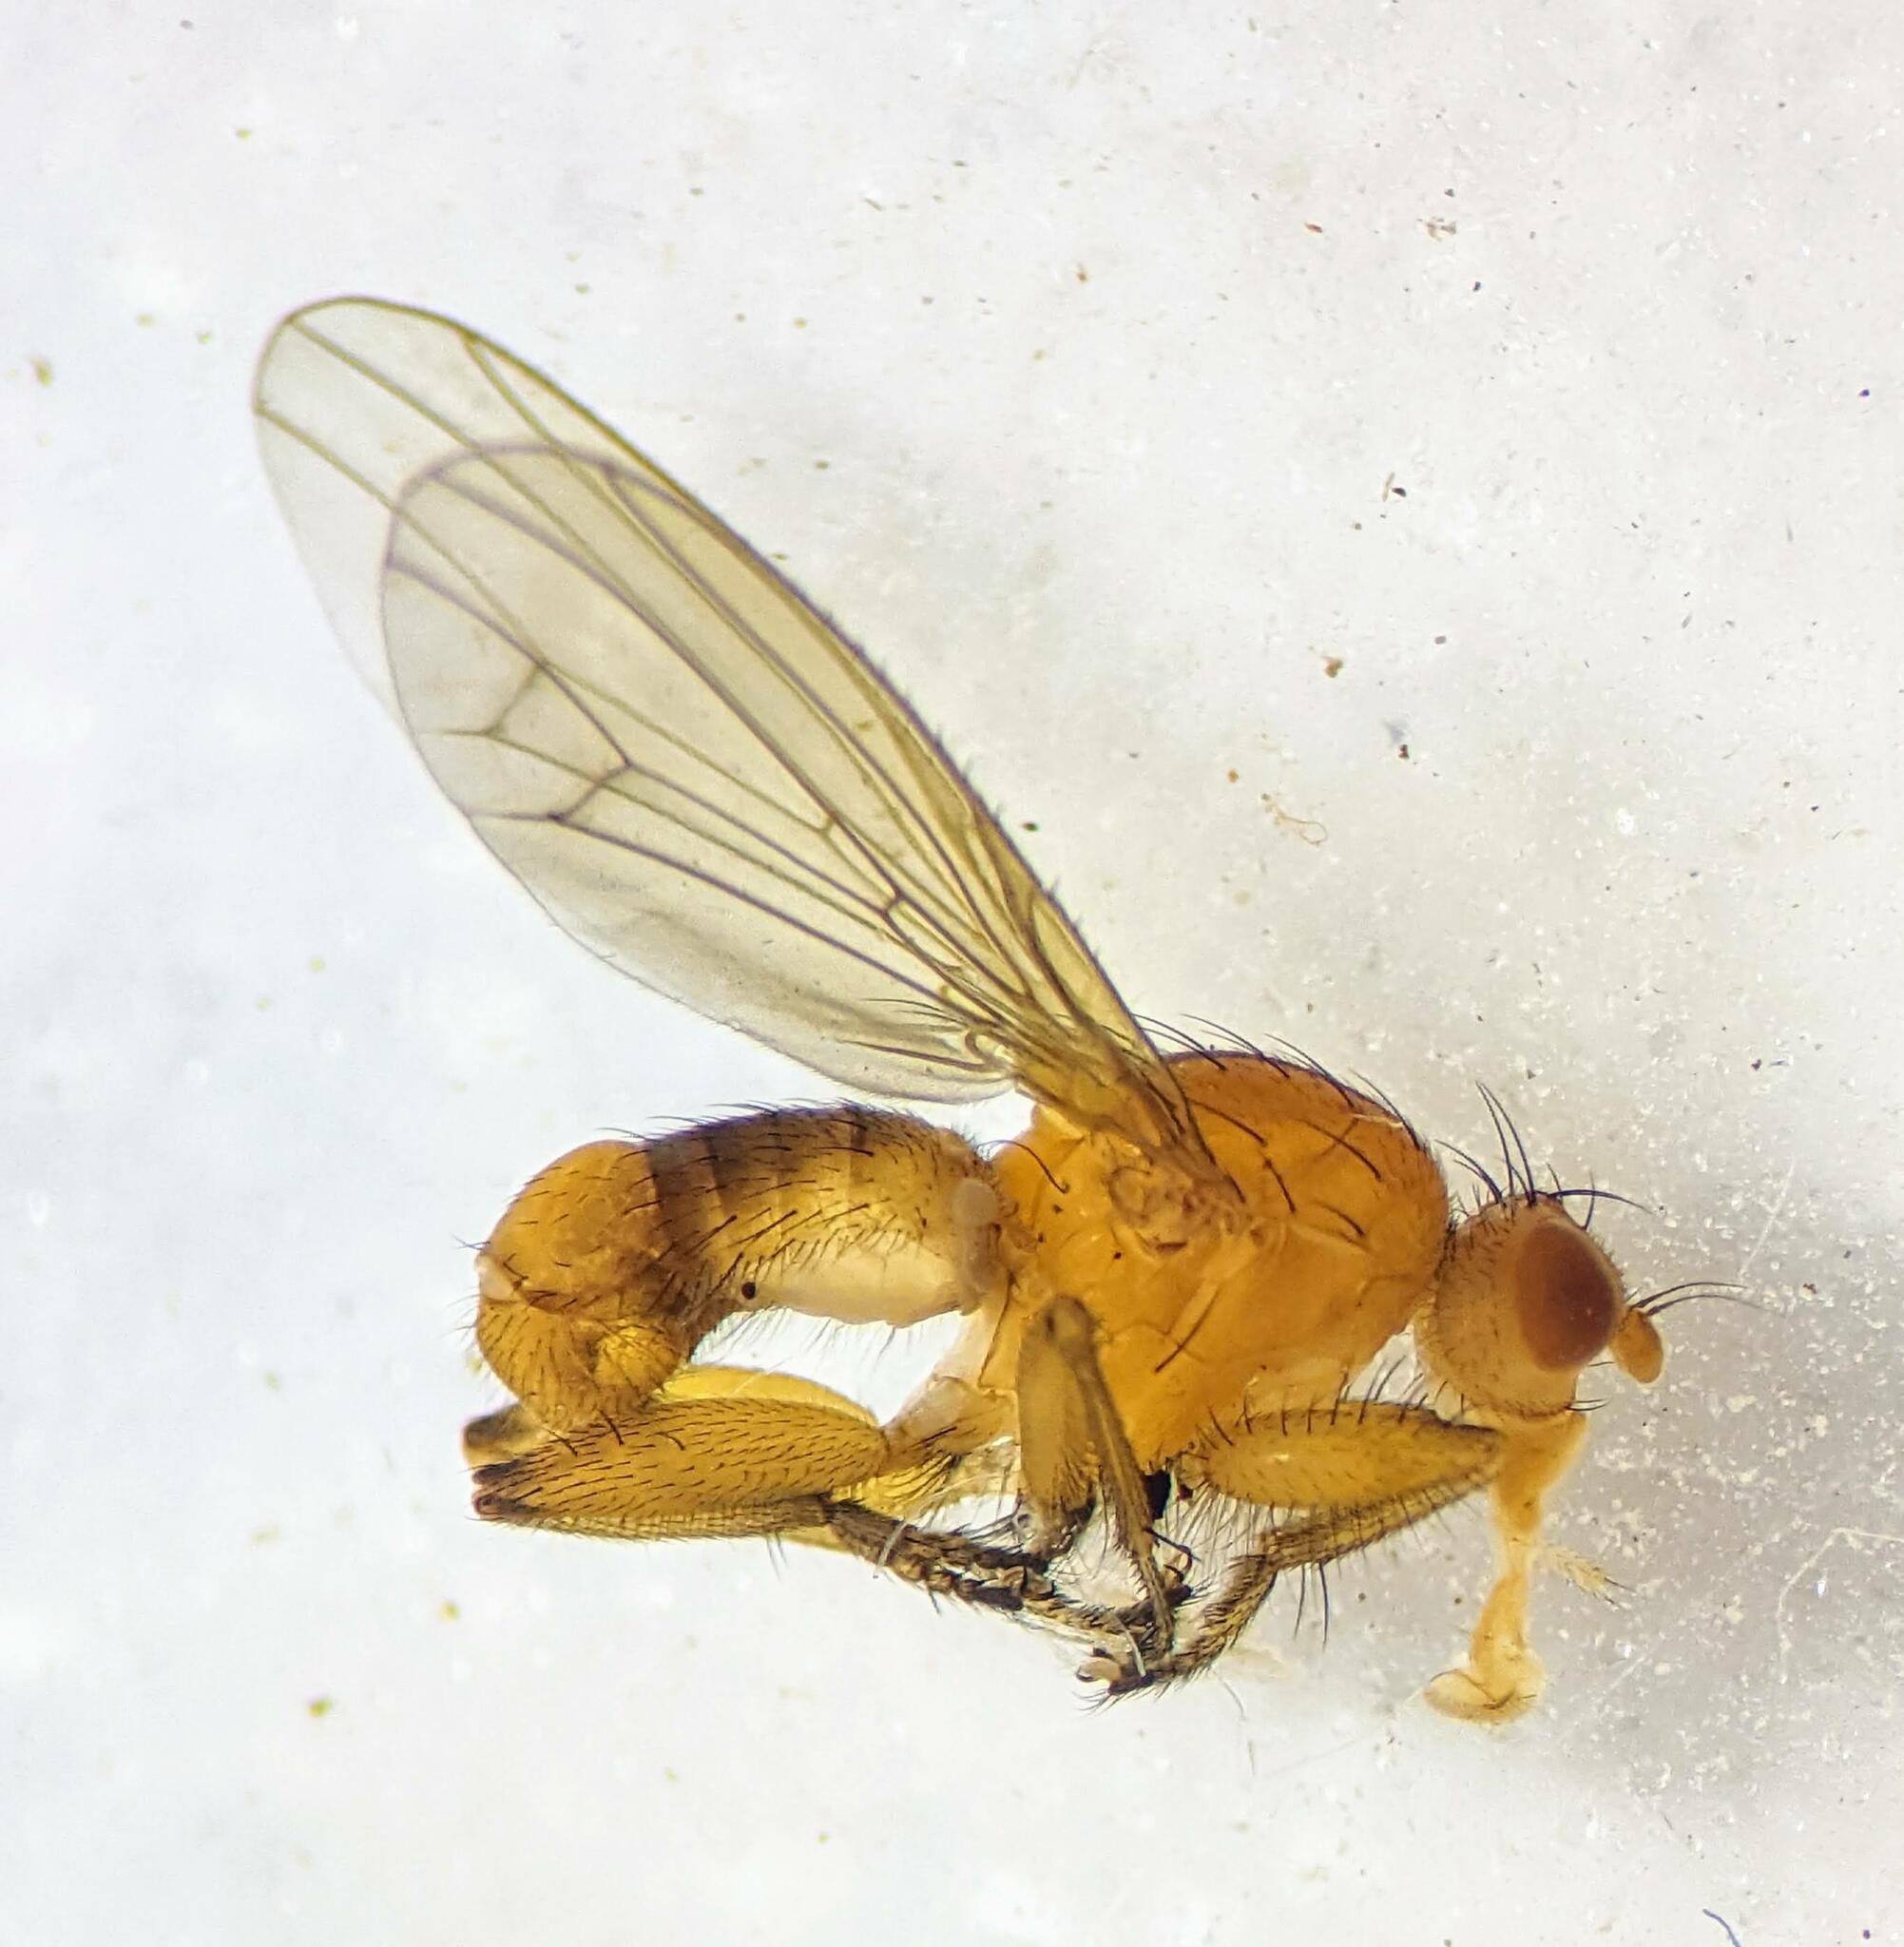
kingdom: Animalia
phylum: Arthropoda
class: Insecta
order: Diptera
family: Heleomyzidae
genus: Suillia
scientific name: Suillia convergens
